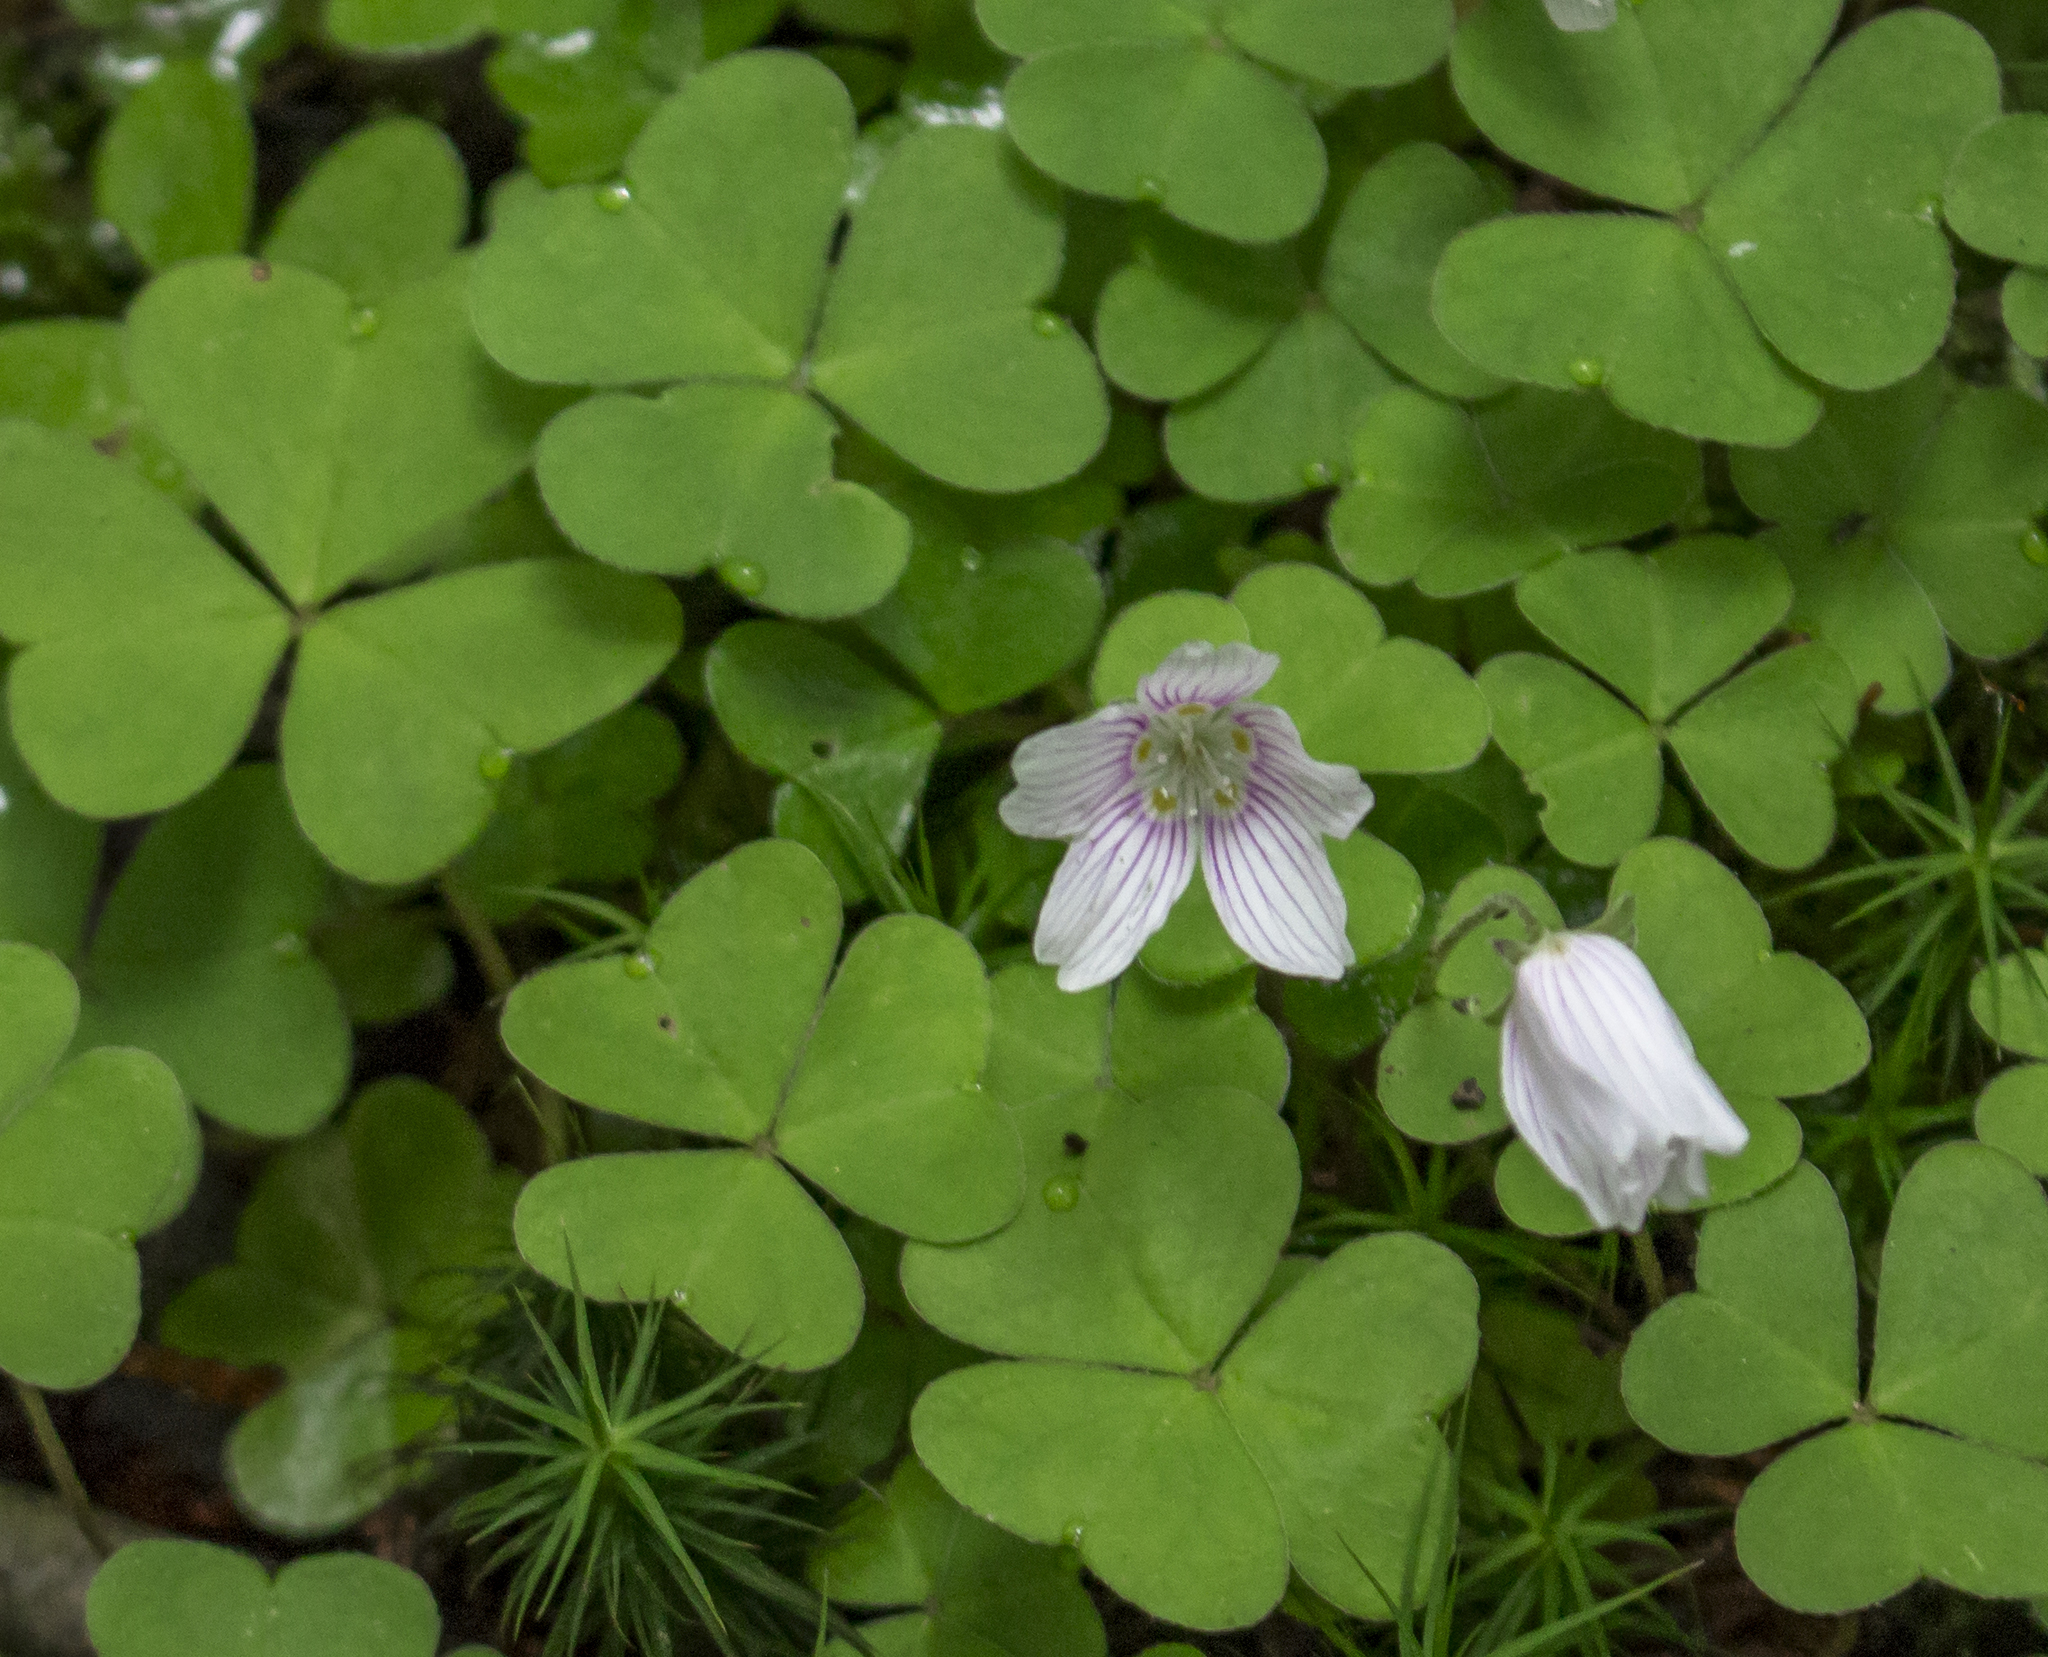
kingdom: Plantae
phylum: Tracheophyta
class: Magnoliopsida
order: Oxalidales
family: Oxalidaceae
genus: Oxalis
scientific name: Oxalis montana
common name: American wood-sorrel
